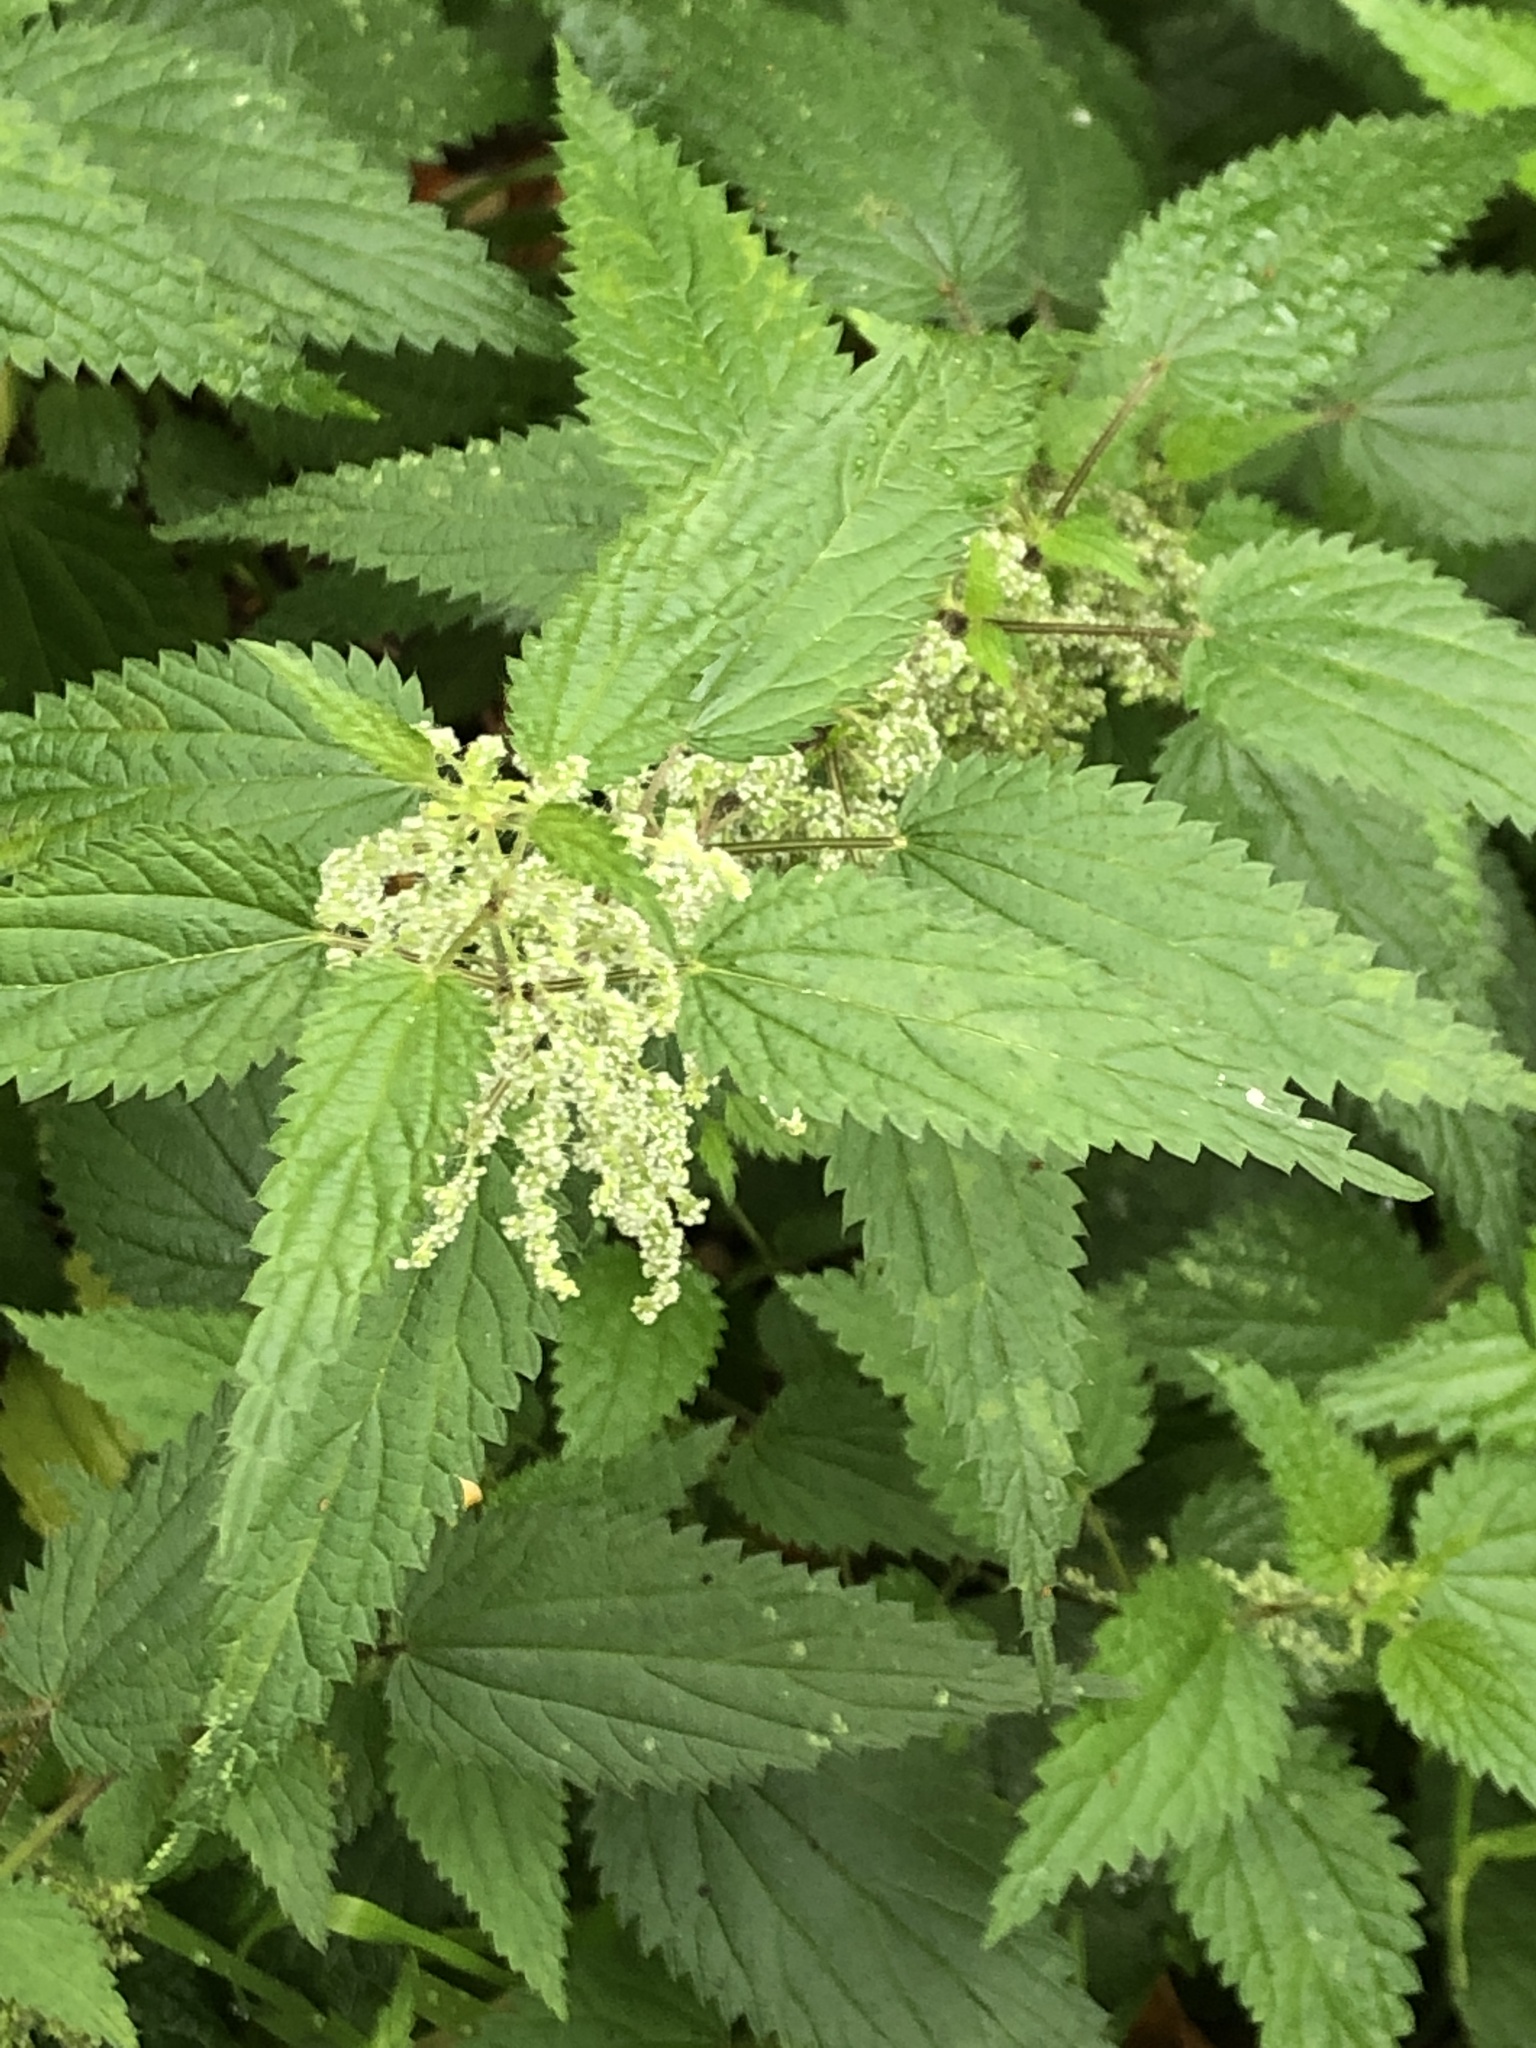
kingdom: Plantae
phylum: Tracheophyta
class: Magnoliopsida
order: Rosales
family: Urticaceae
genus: Urtica
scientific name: Urtica dioica
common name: Common nettle
